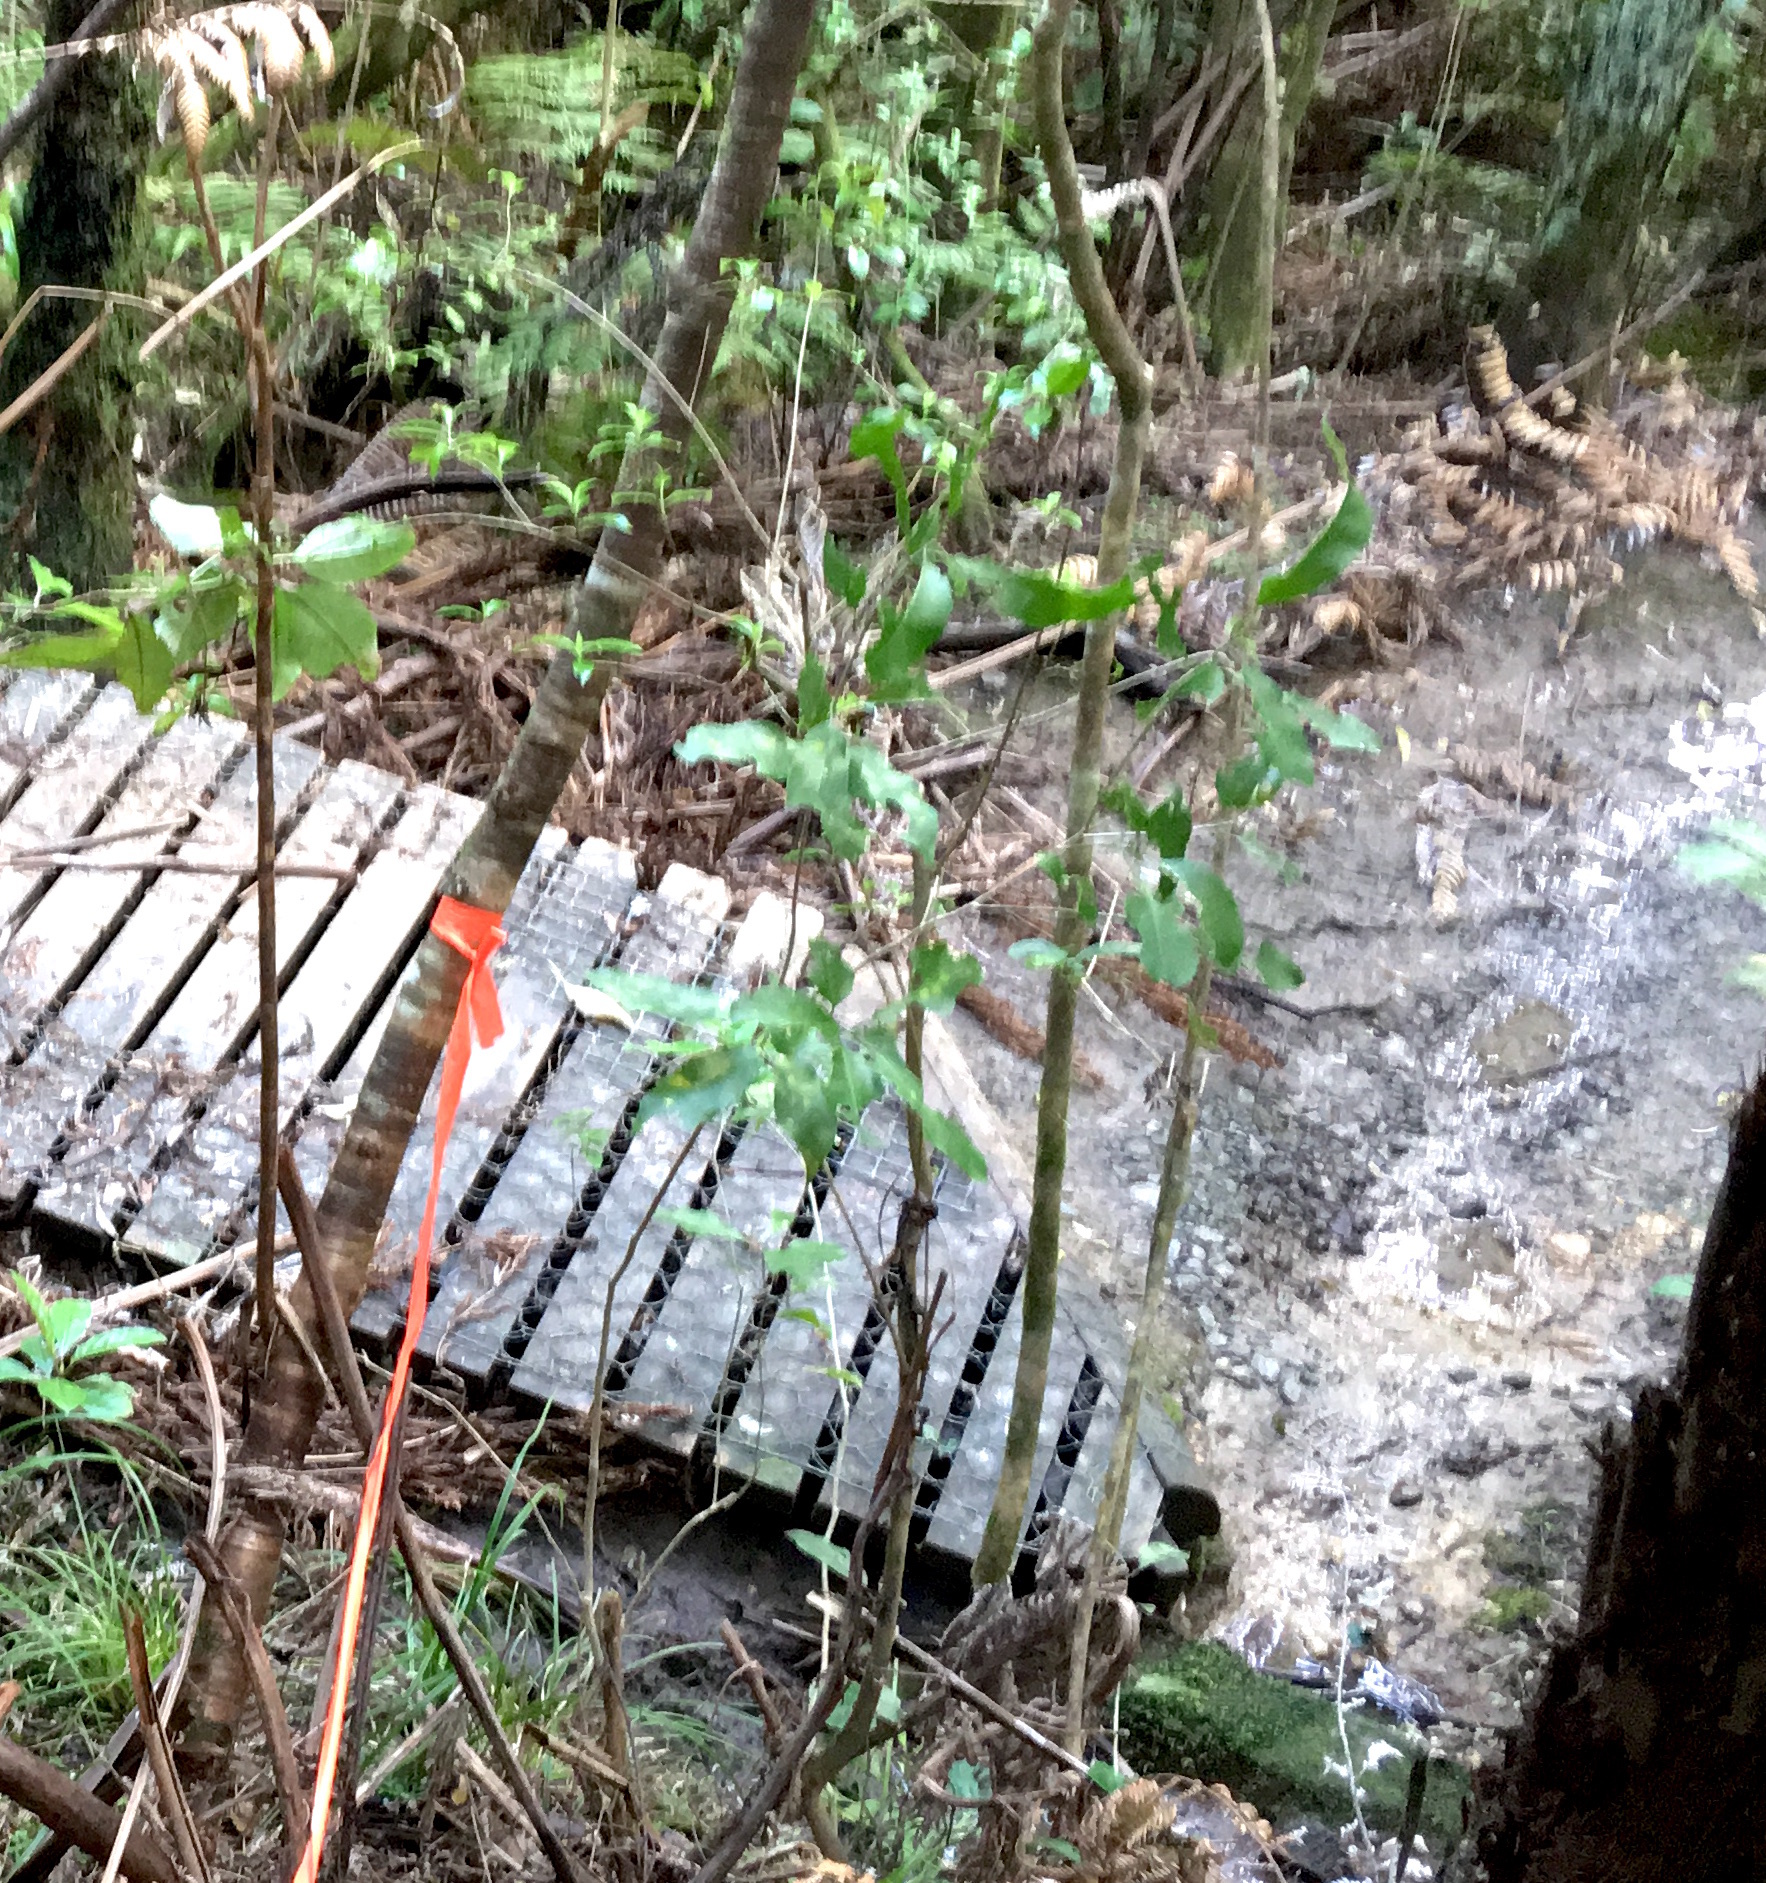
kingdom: Plantae
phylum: Tracheophyta
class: Magnoliopsida
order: Malpighiales
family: Violaceae
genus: Melicytus
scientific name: Melicytus ramiflorus
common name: Mahoe
